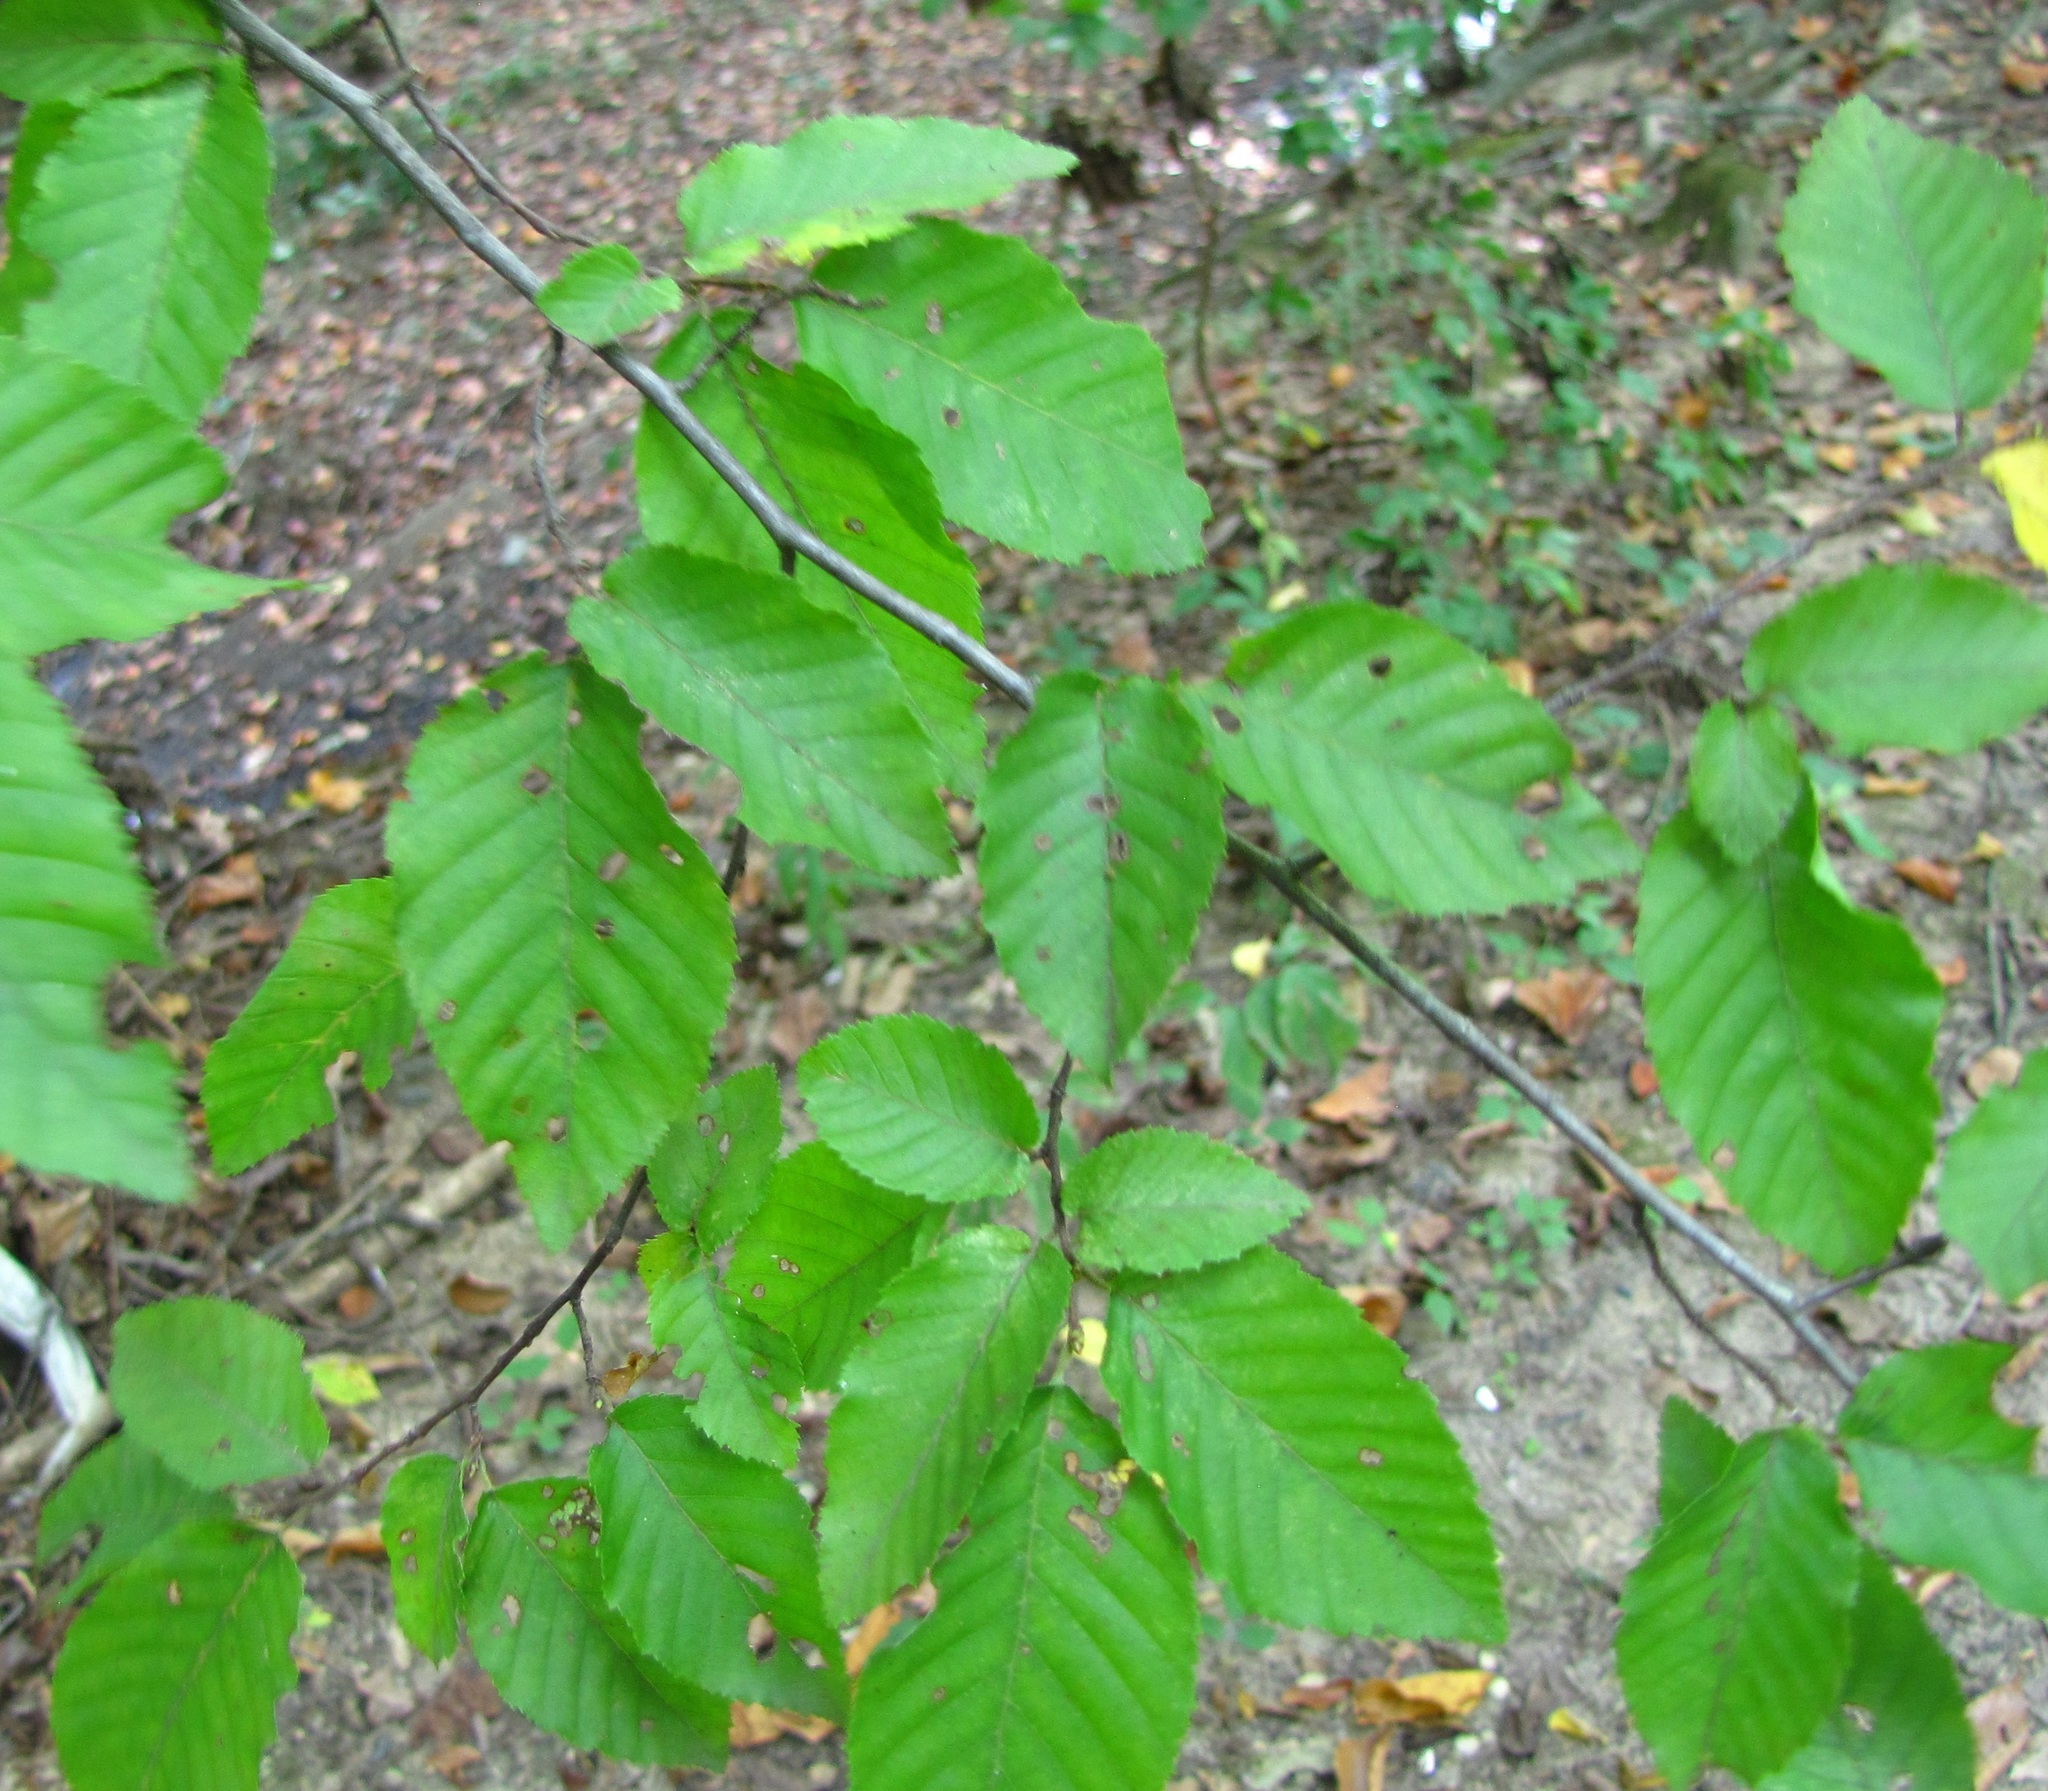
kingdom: Plantae
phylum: Tracheophyta
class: Magnoliopsida
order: Fagales
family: Betulaceae
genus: Carpinus
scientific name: Carpinus caroliniana
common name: American hornbeam
